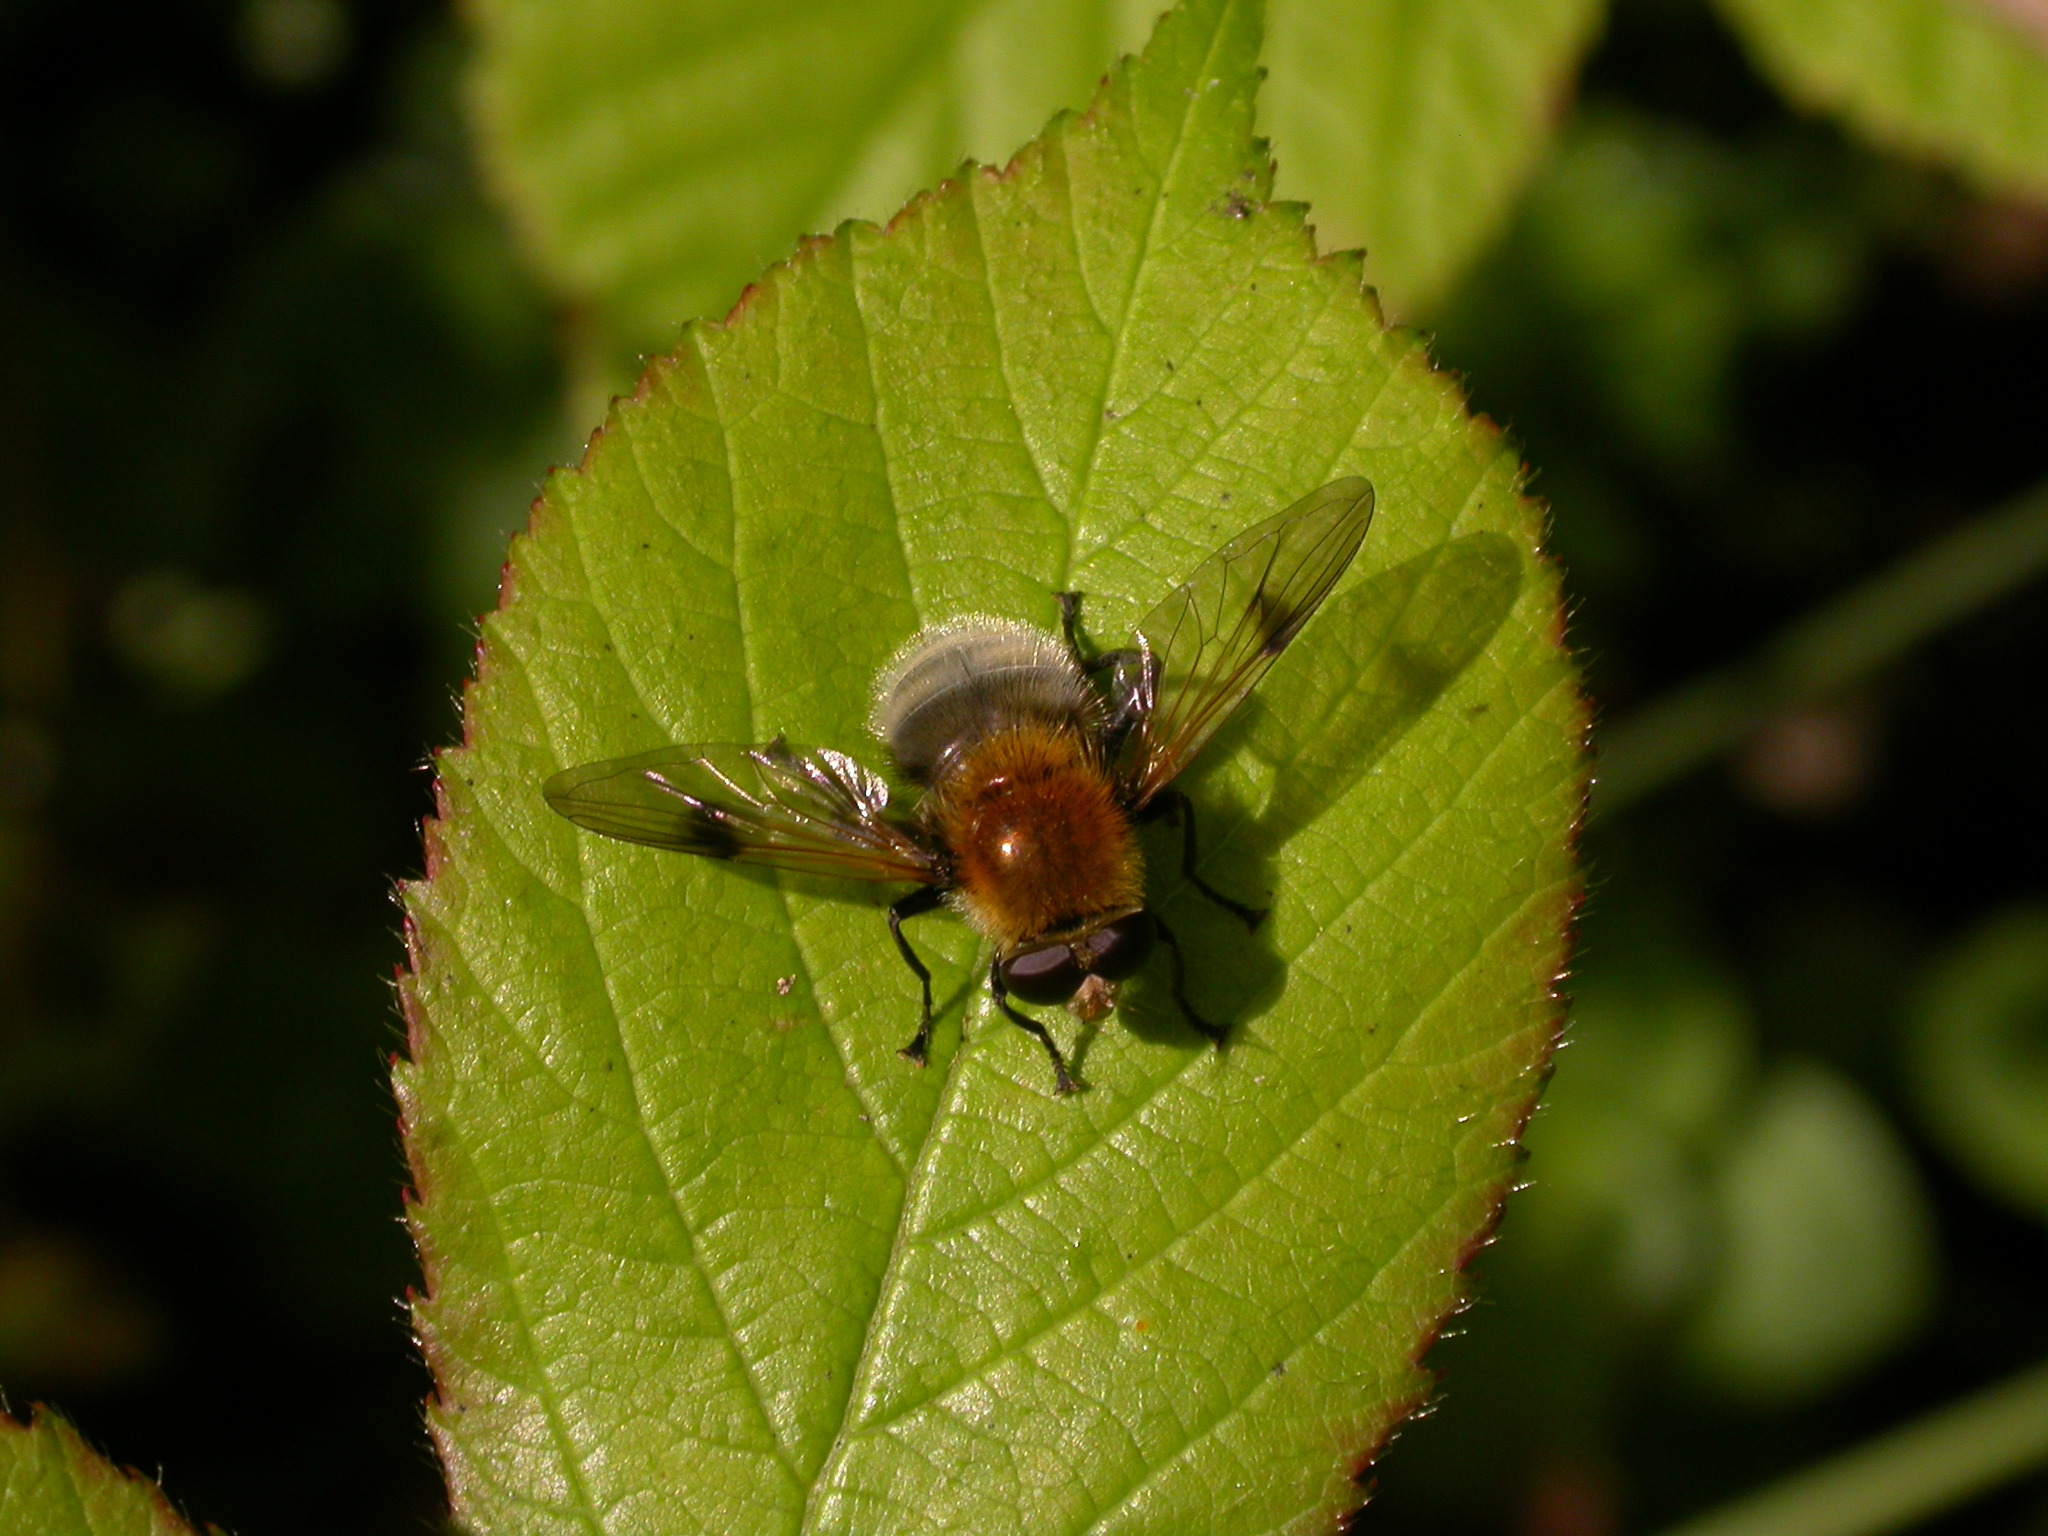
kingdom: Animalia
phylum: Arthropoda
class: Insecta
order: Diptera
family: Syrphidae
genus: Sericomyia
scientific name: Sericomyia superbiens
